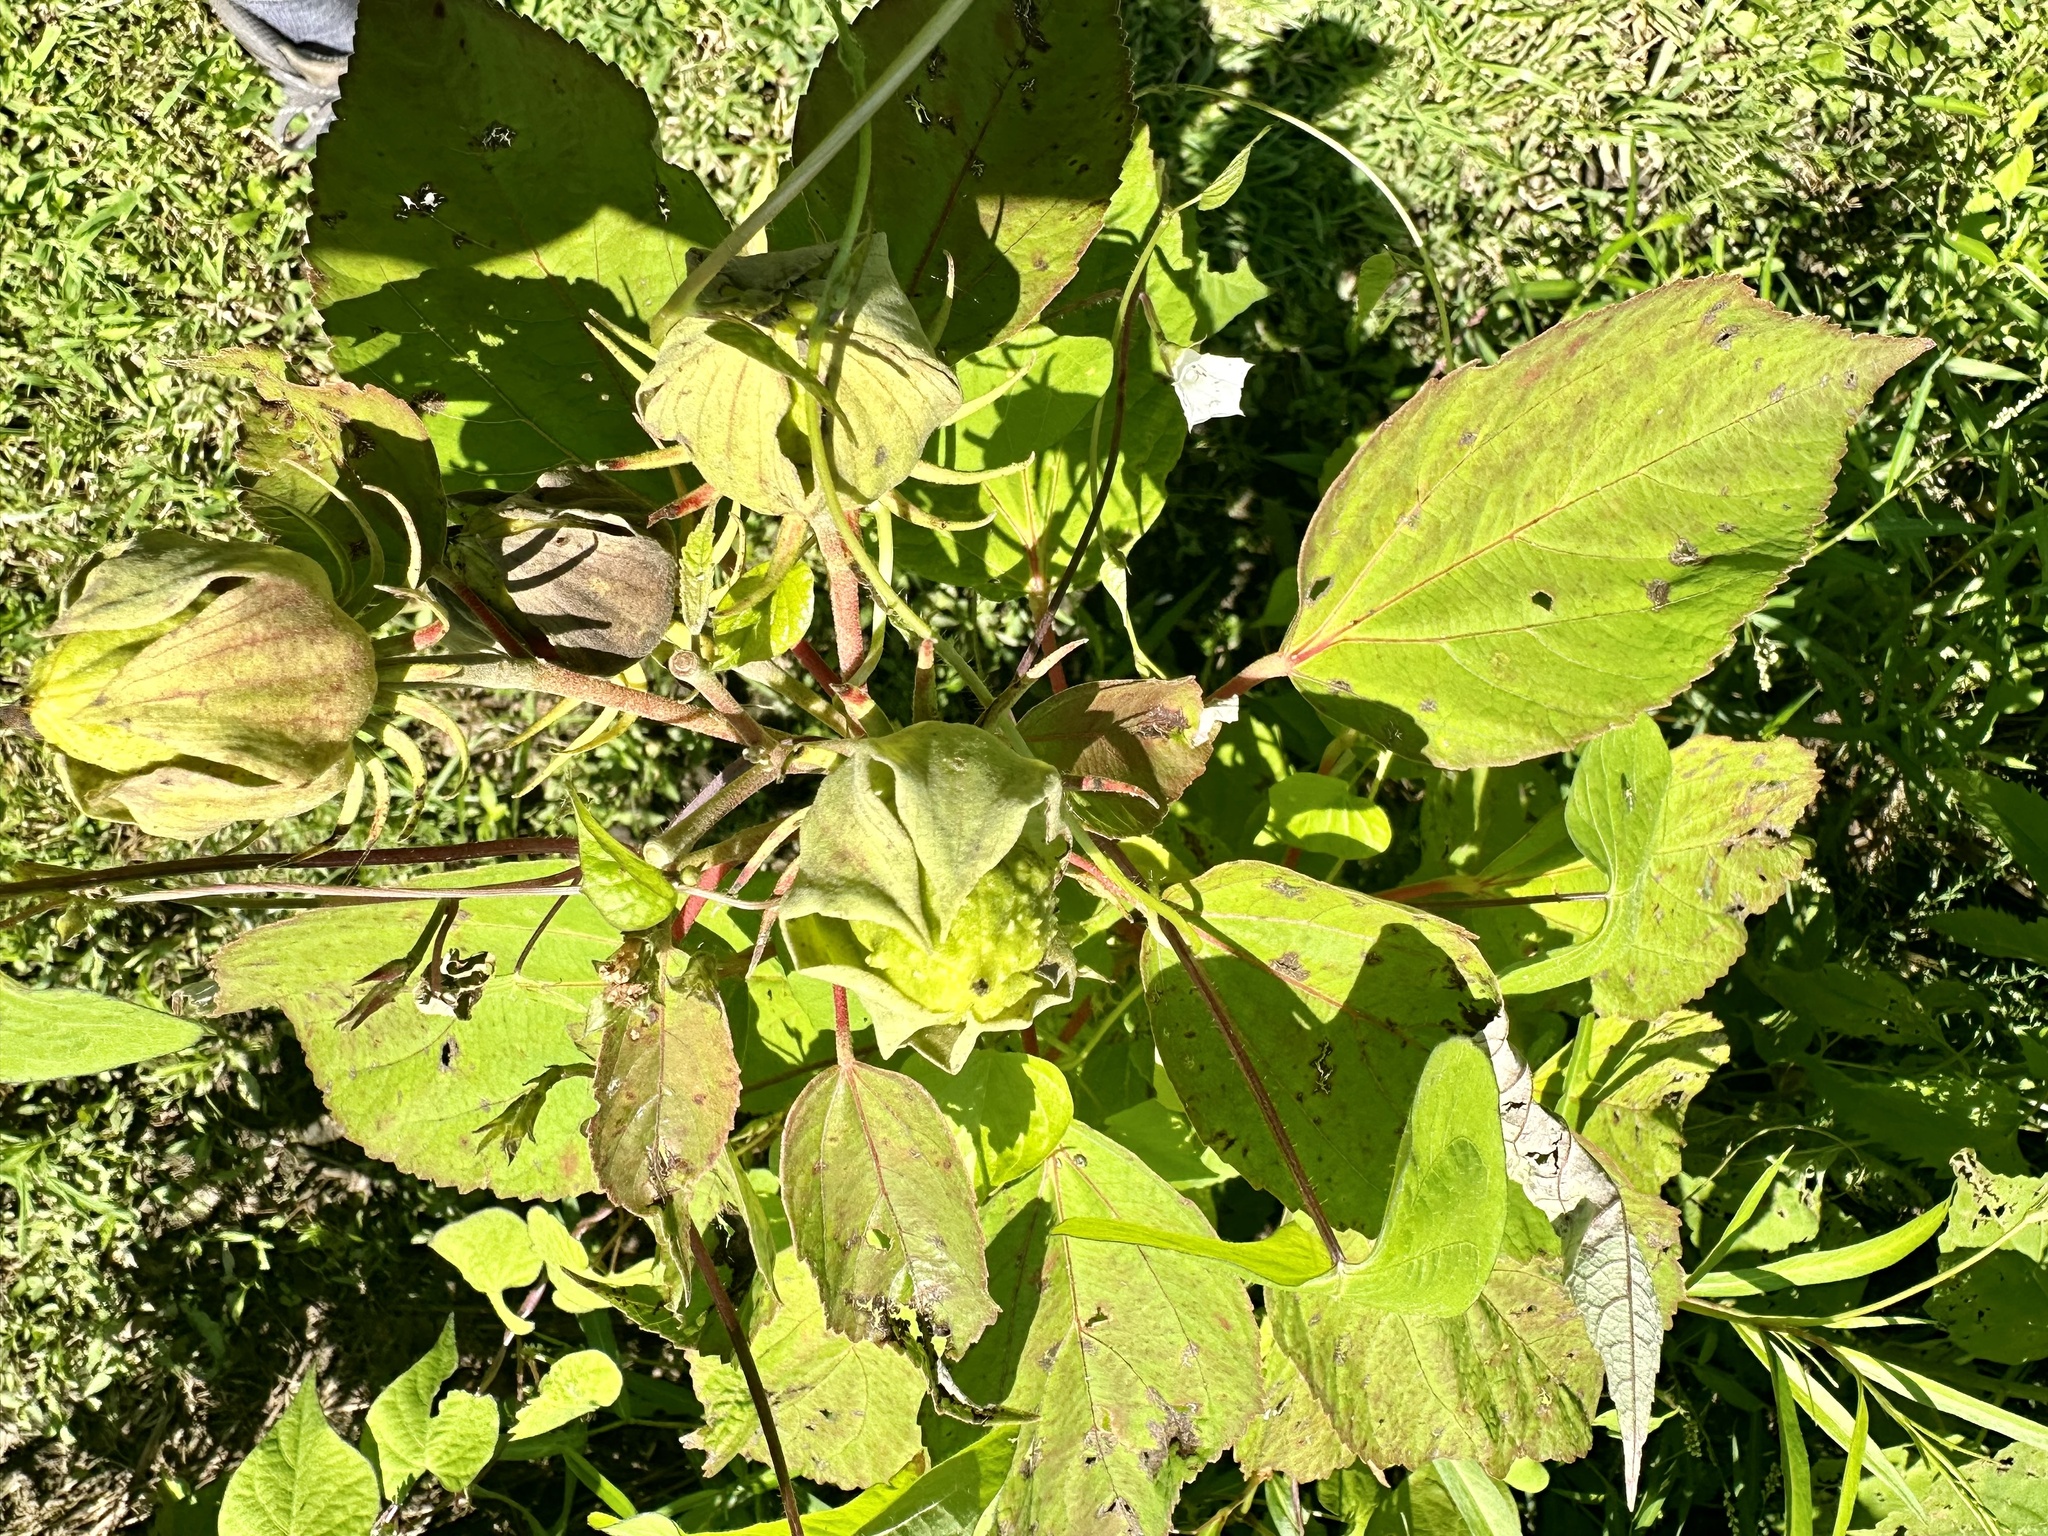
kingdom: Plantae
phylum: Tracheophyta
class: Magnoliopsida
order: Malvales
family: Malvaceae
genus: Hibiscus
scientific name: Hibiscus moscheutos
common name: Common rose-mallow
